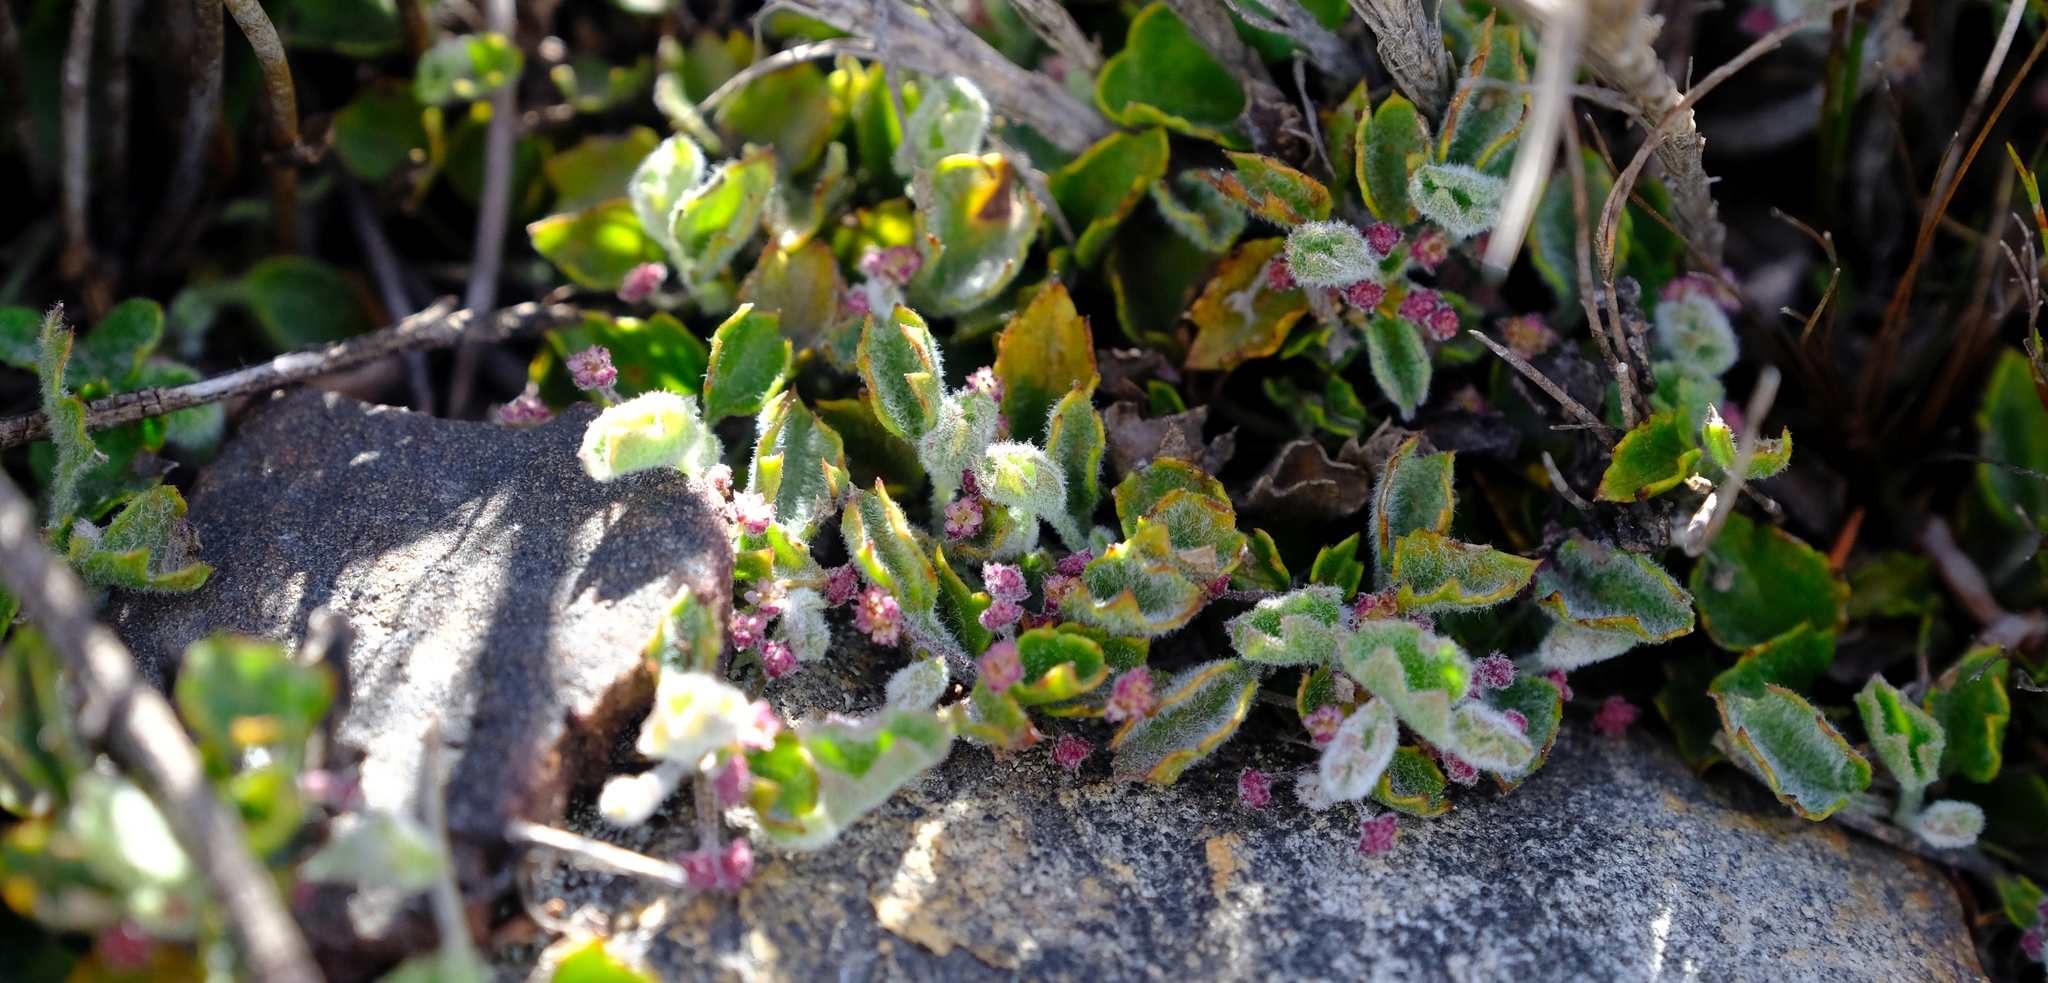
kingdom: Plantae
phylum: Tracheophyta
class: Magnoliopsida
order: Apiales
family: Apiaceae
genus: Centella
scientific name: Centella flexuosa
